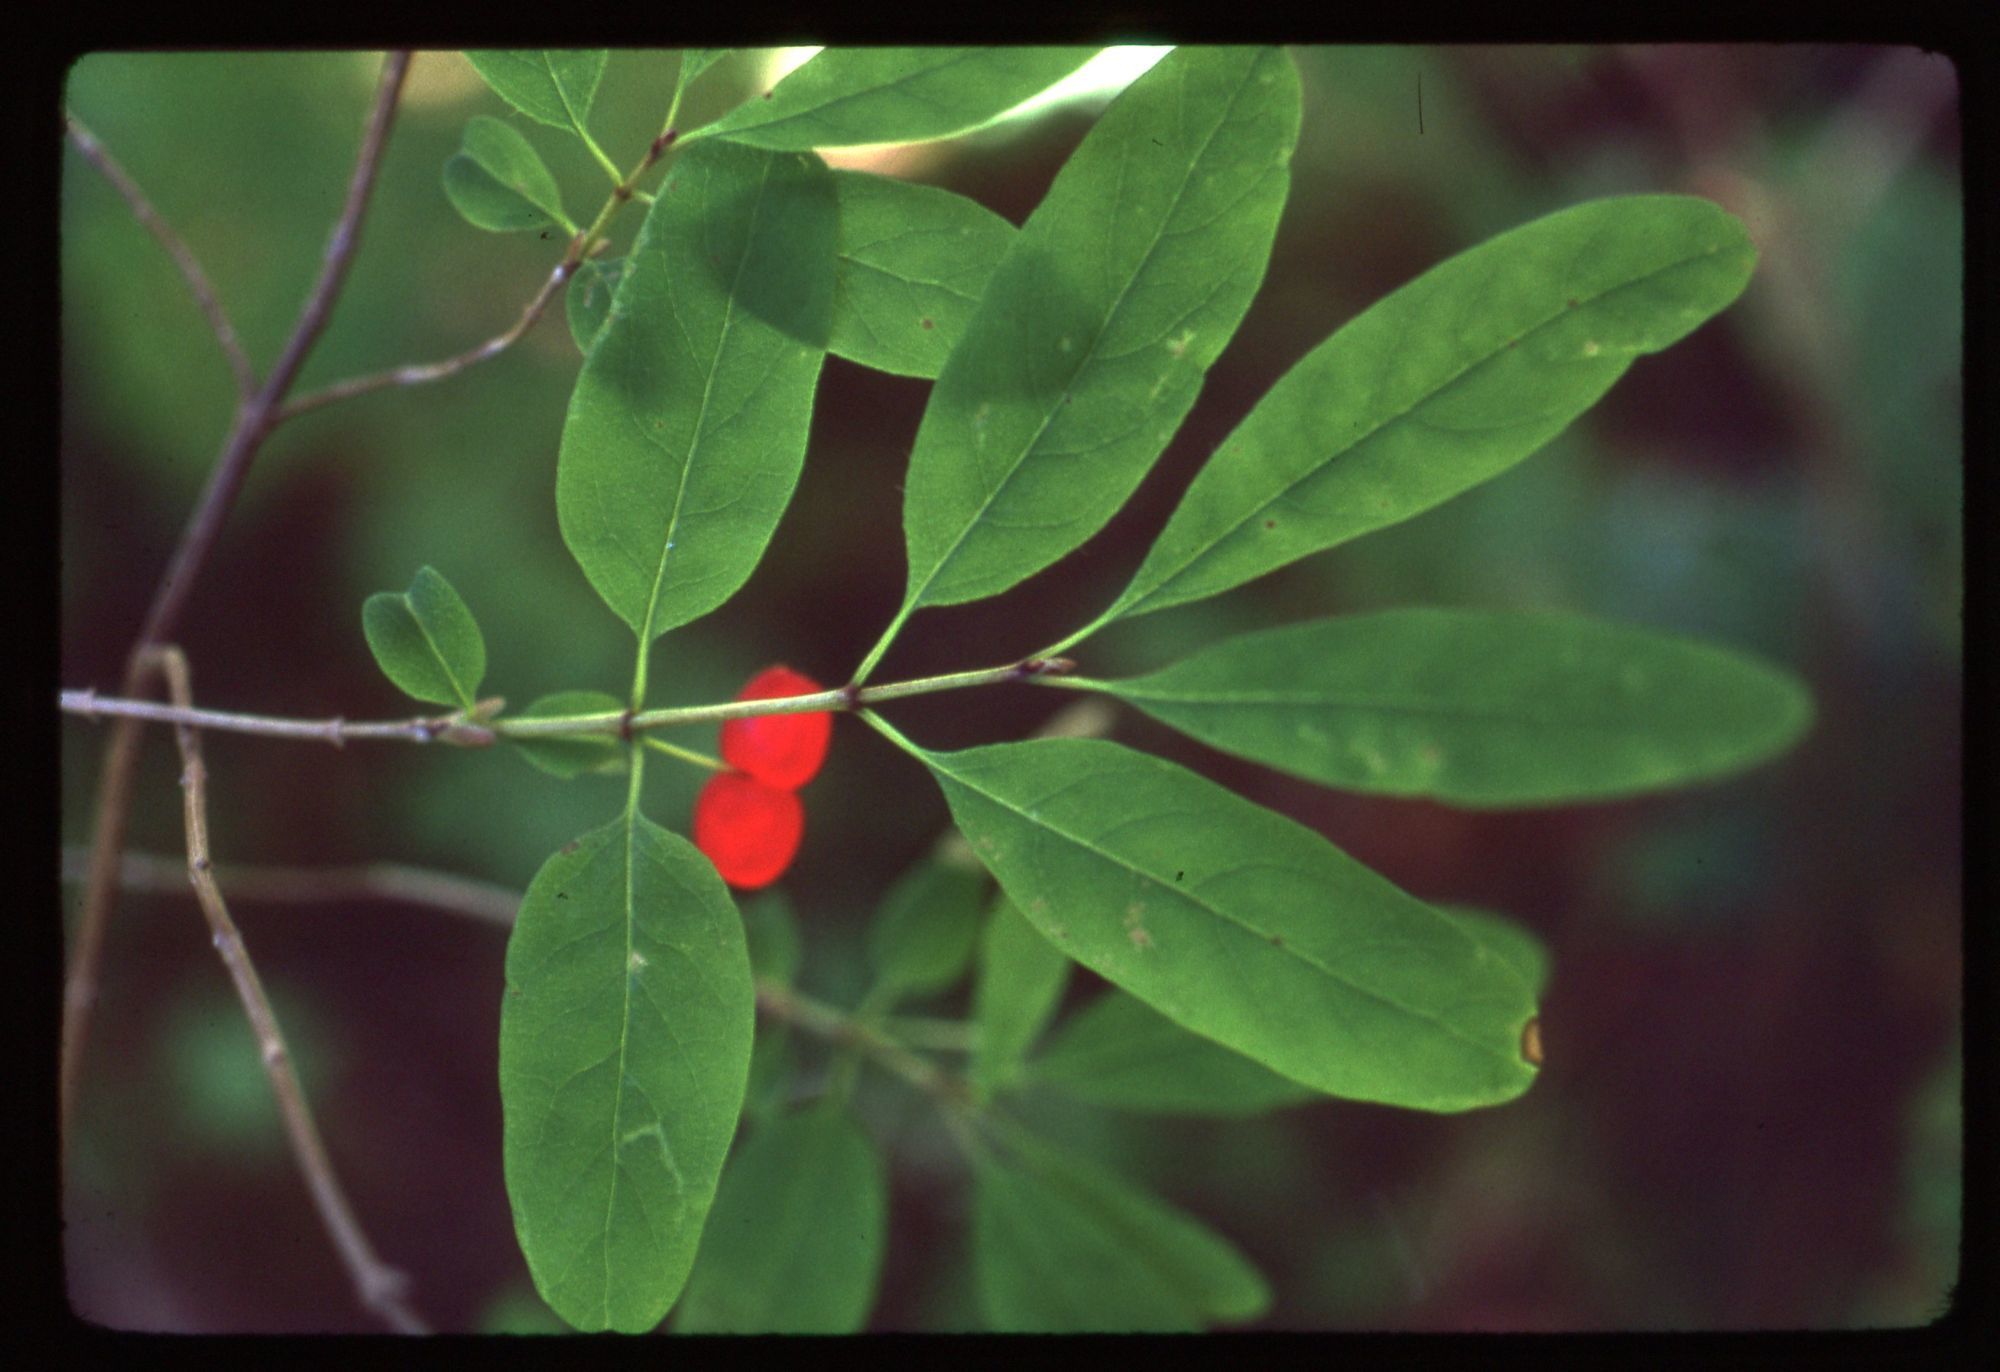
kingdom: Plantae
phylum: Tracheophyta
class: Magnoliopsida
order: Dipsacales
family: Caprifoliaceae
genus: Lonicera
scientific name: Lonicera utahensis
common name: Utah honeysuckle
